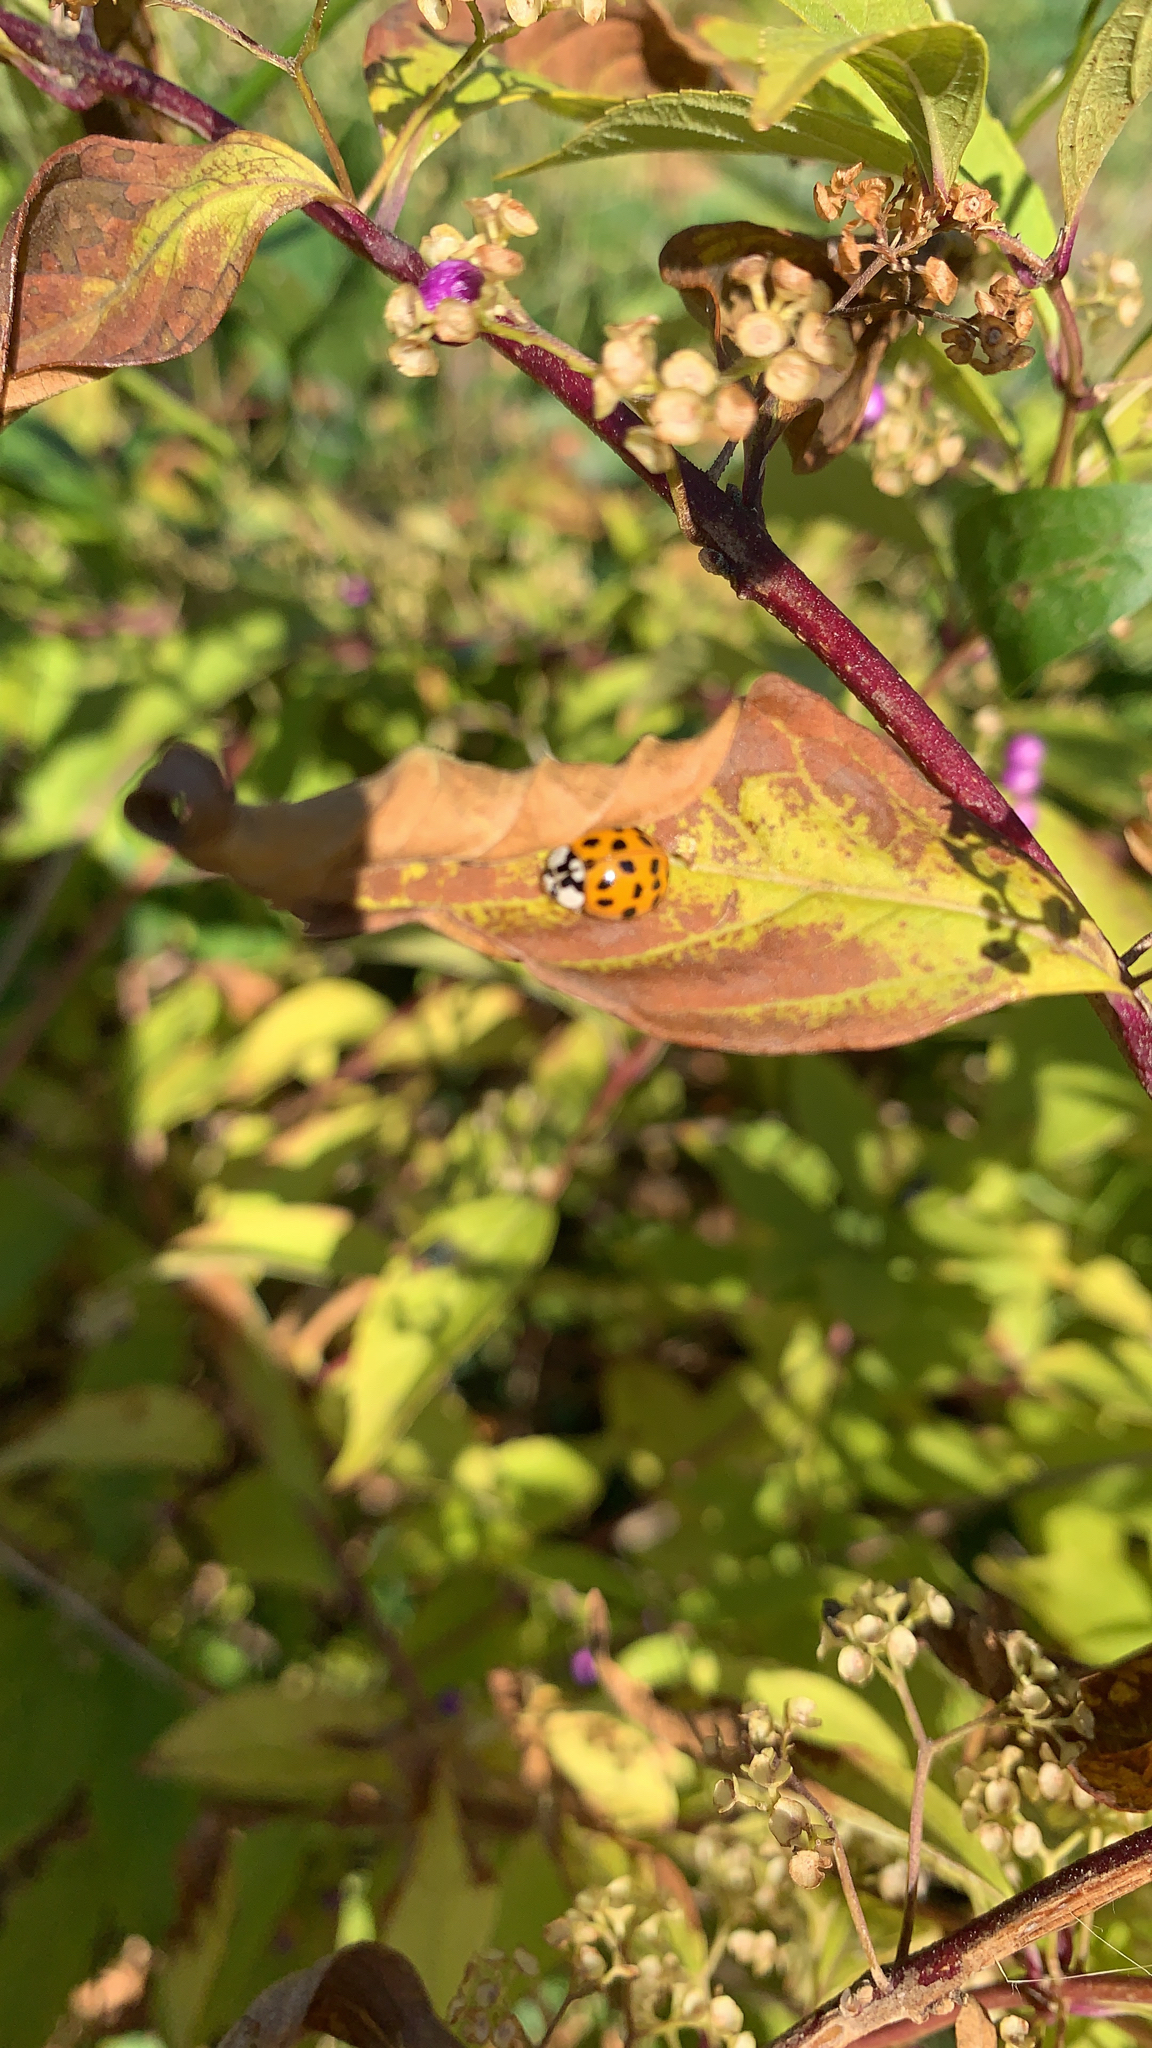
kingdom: Animalia
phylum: Arthropoda
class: Insecta
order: Coleoptera
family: Coccinellidae
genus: Harmonia
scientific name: Harmonia axyridis
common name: Harlequin ladybird
